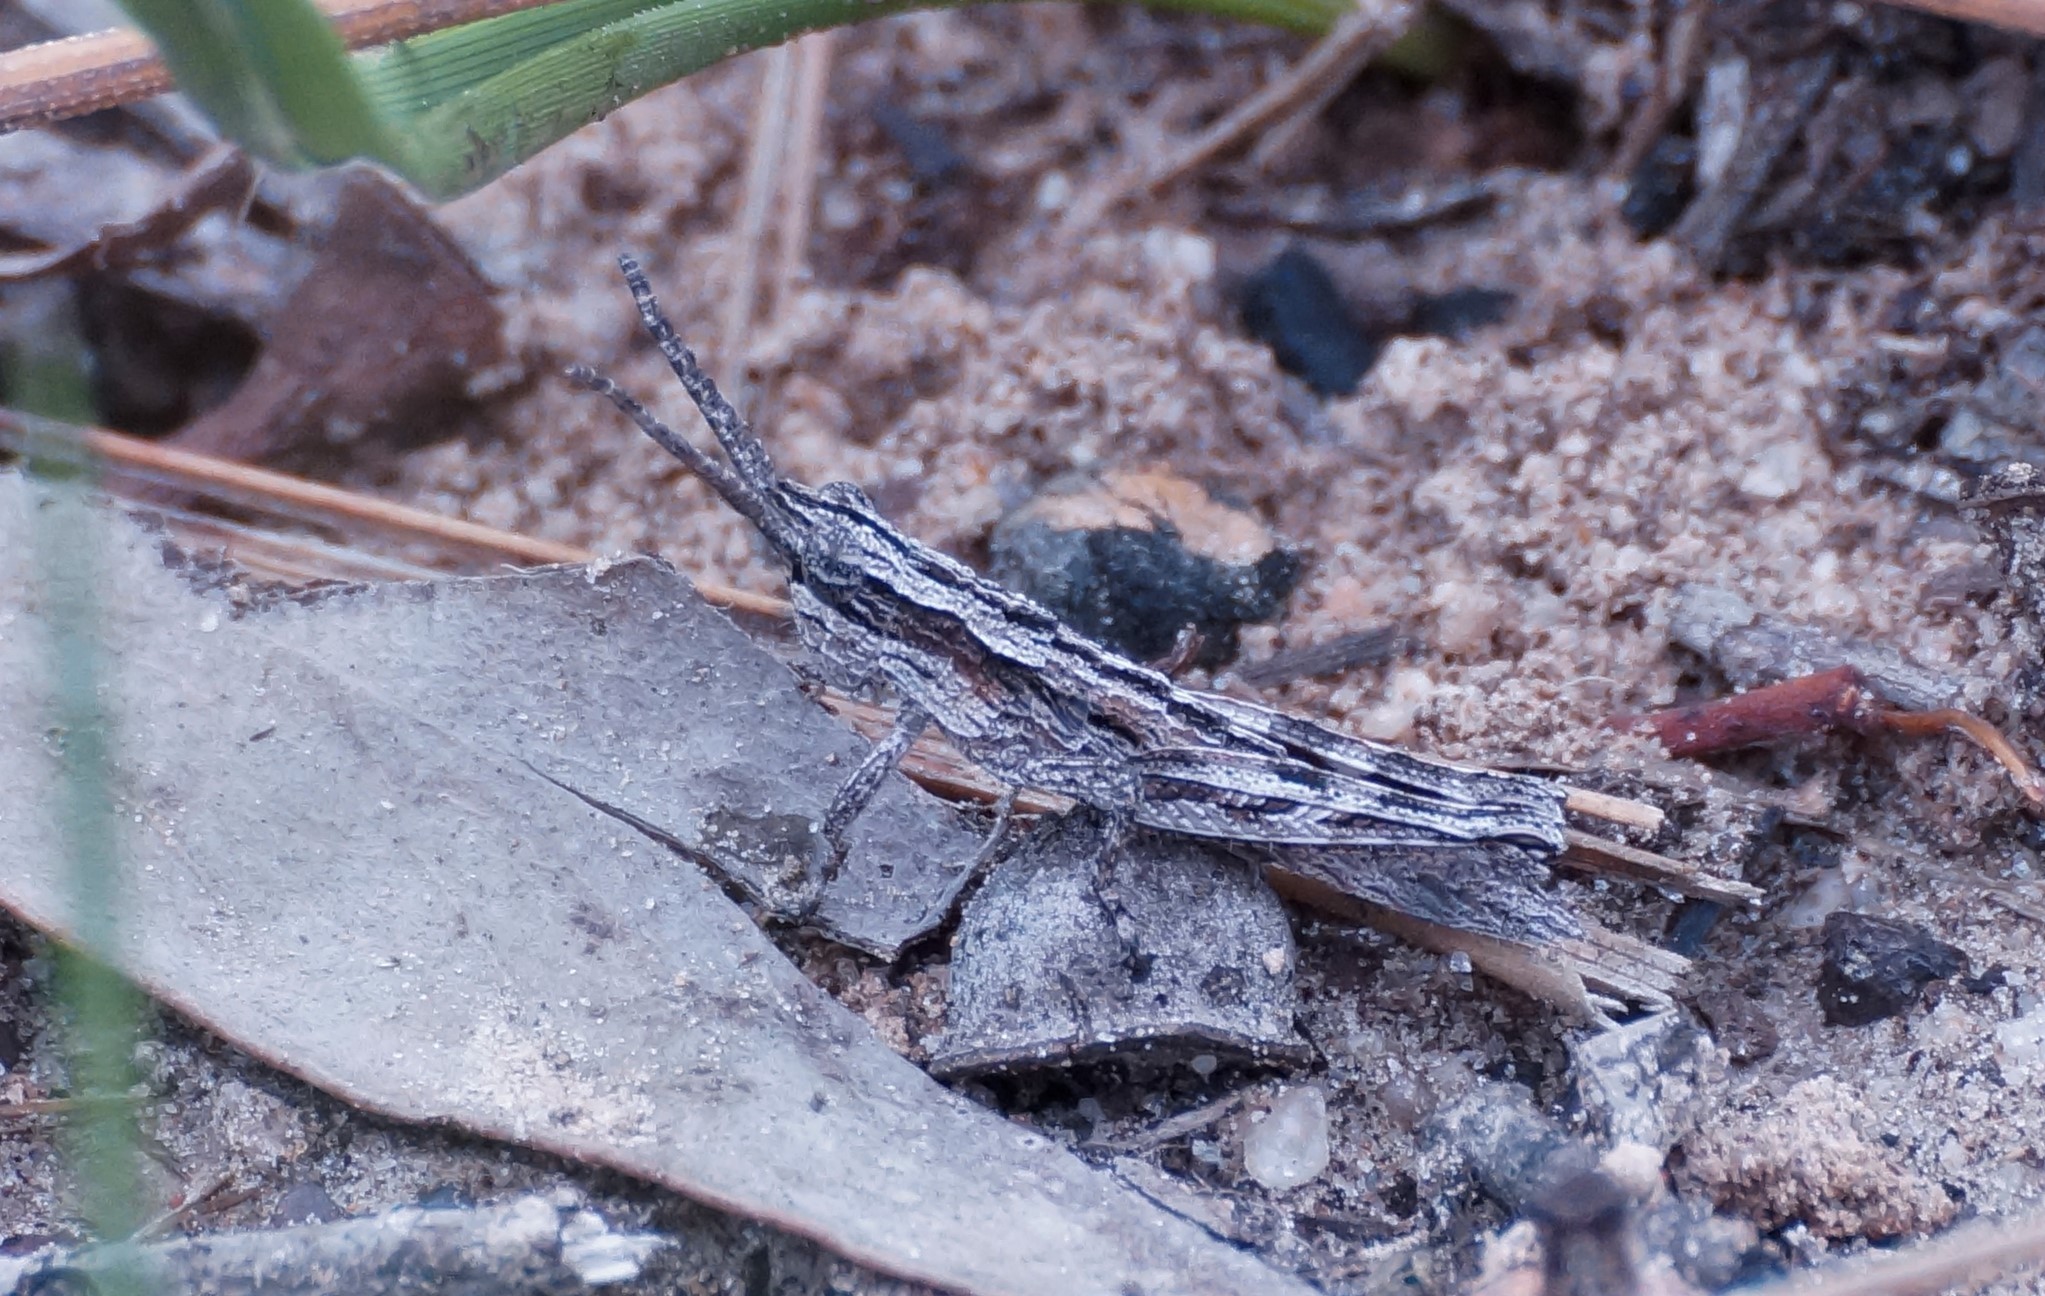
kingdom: Animalia
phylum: Arthropoda
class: Insecta
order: Orthoptera
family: Acrididae
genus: Coryphistes
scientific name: Coryphistes ruricola
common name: Bark-mimicking grasshopper
